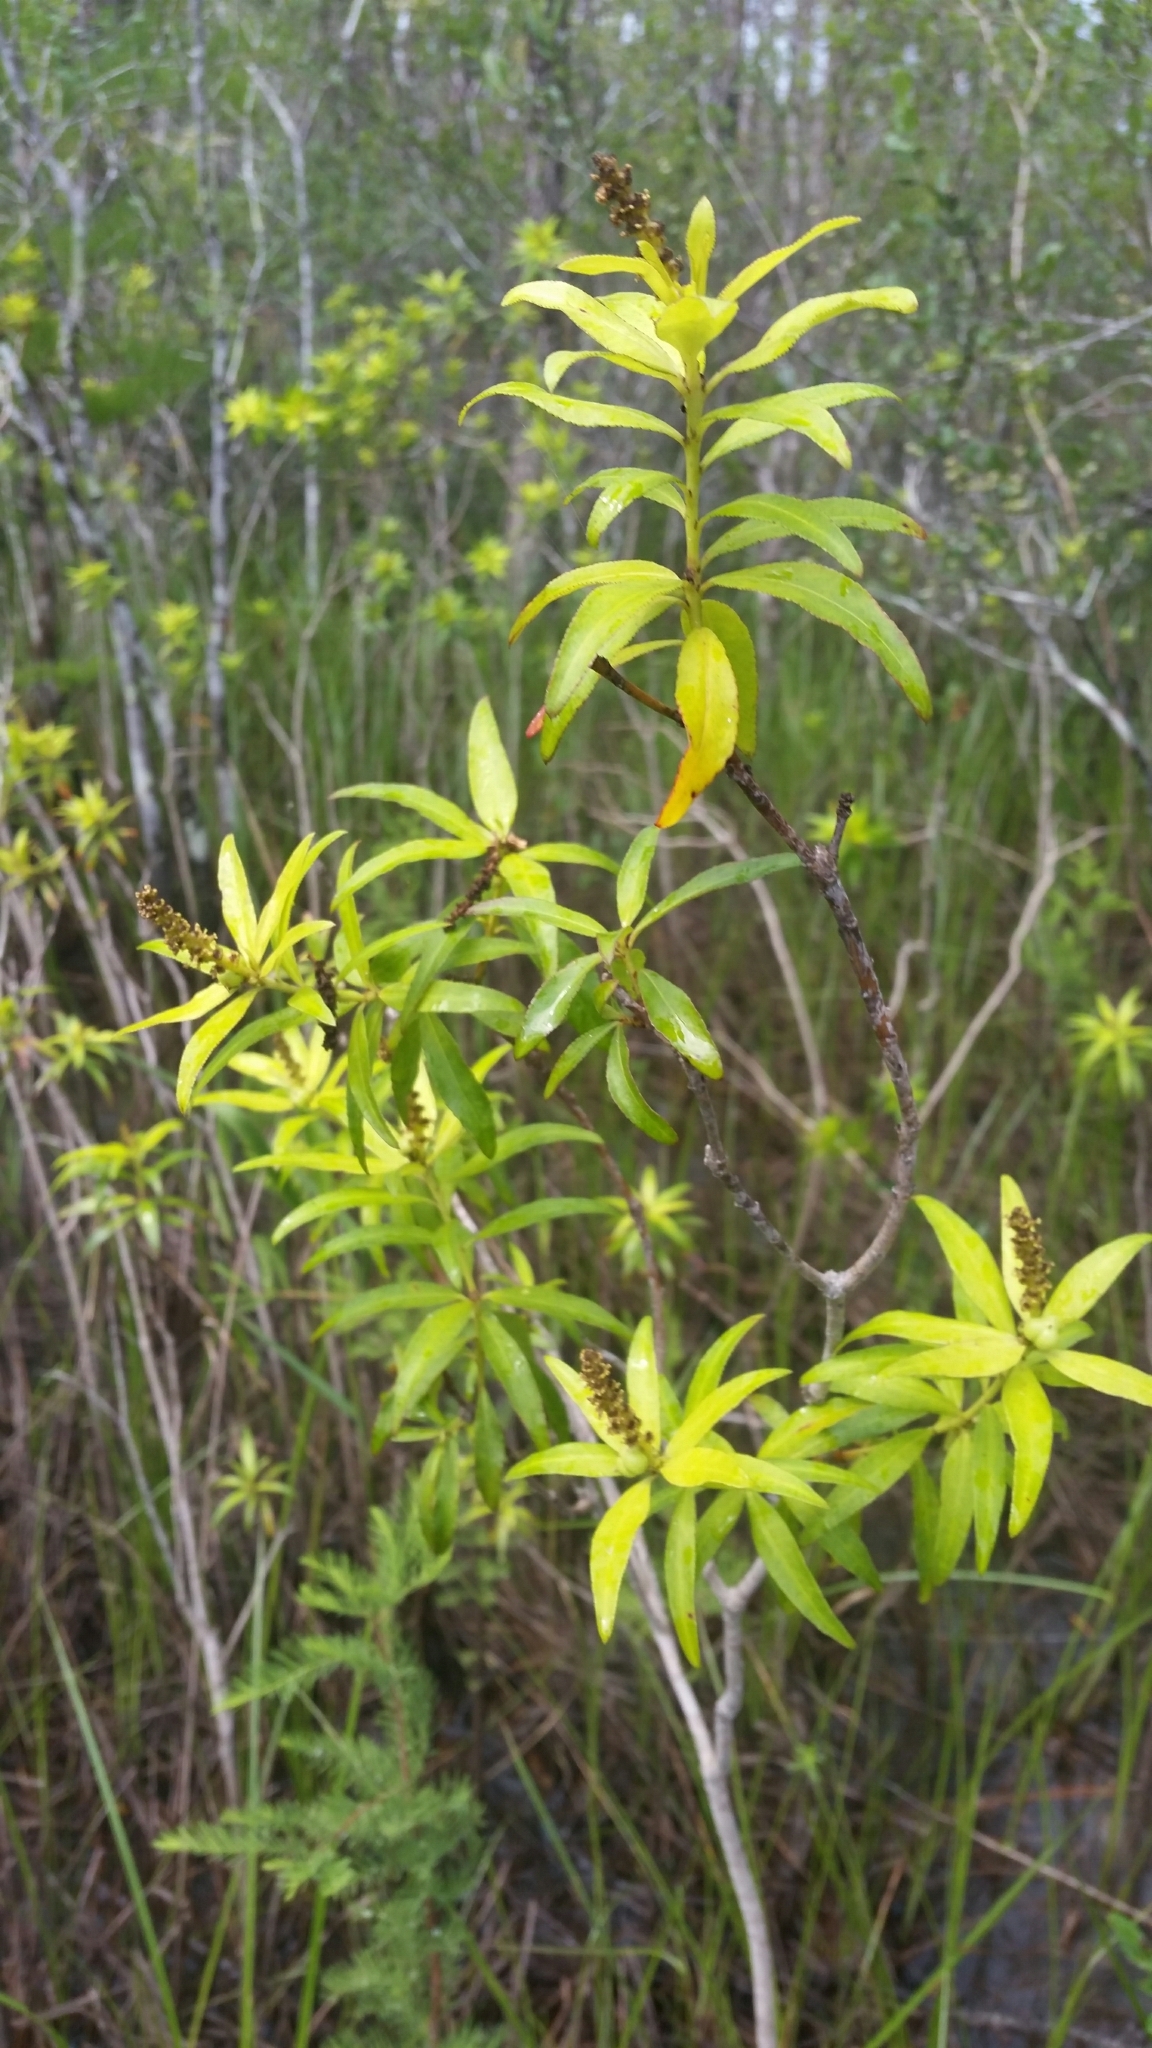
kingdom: Plantae
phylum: Tracheophyta
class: Magnoliopsida
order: Malpighiales
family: Euphorbiaceae
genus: Stillingia
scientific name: Stillingia aquatica
